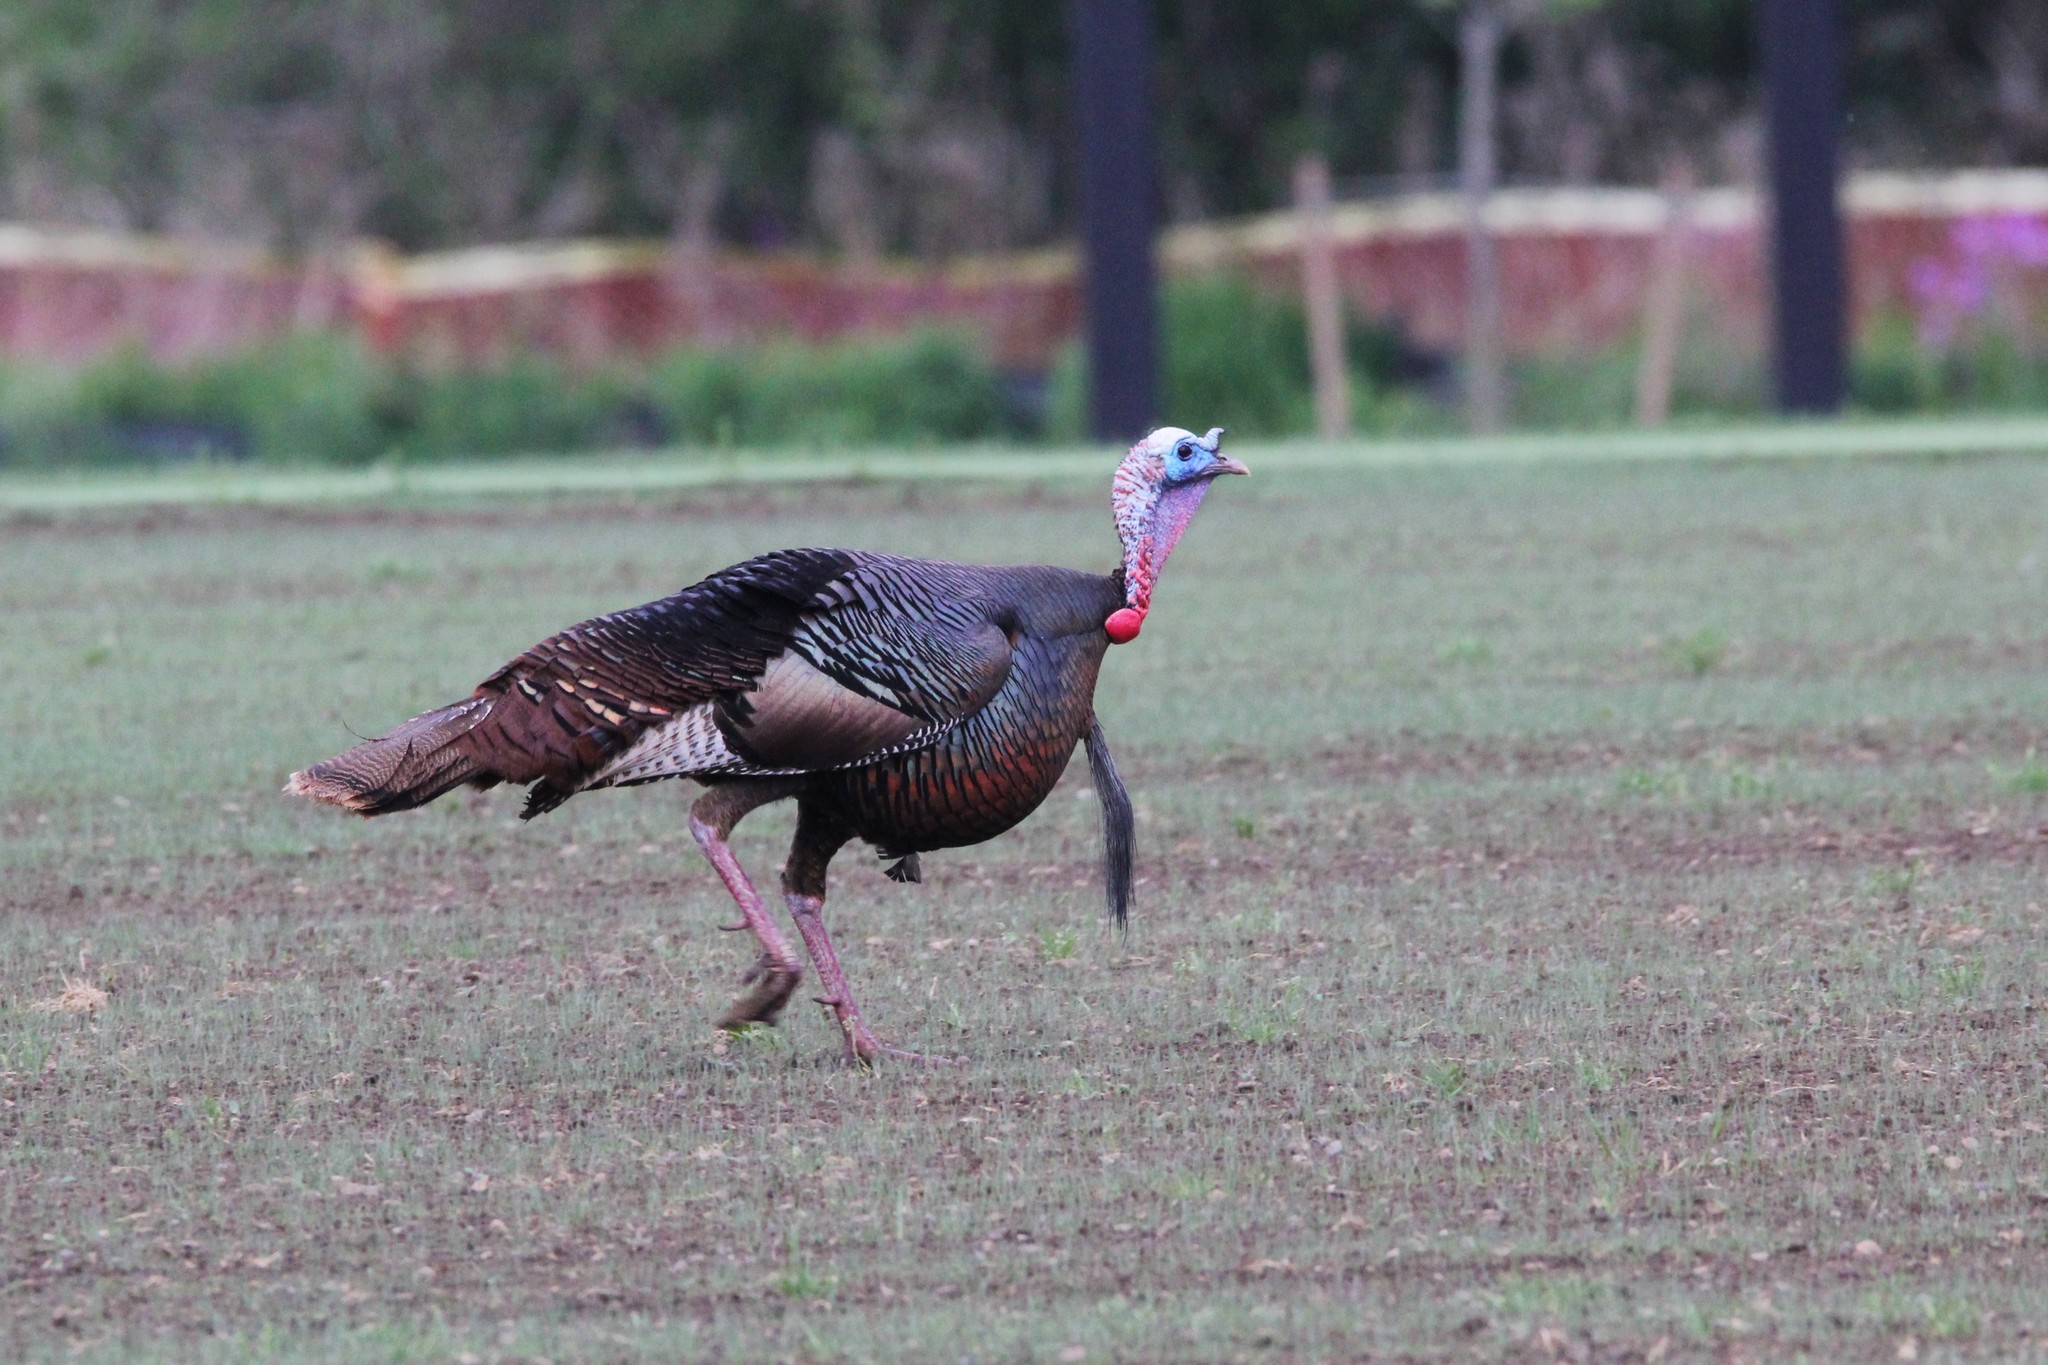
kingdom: Animalia
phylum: Chordata
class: Aves
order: Galliformes
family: Phasianidae
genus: Meleagris
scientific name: Meleagris gallopavo
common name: Wild turkey
